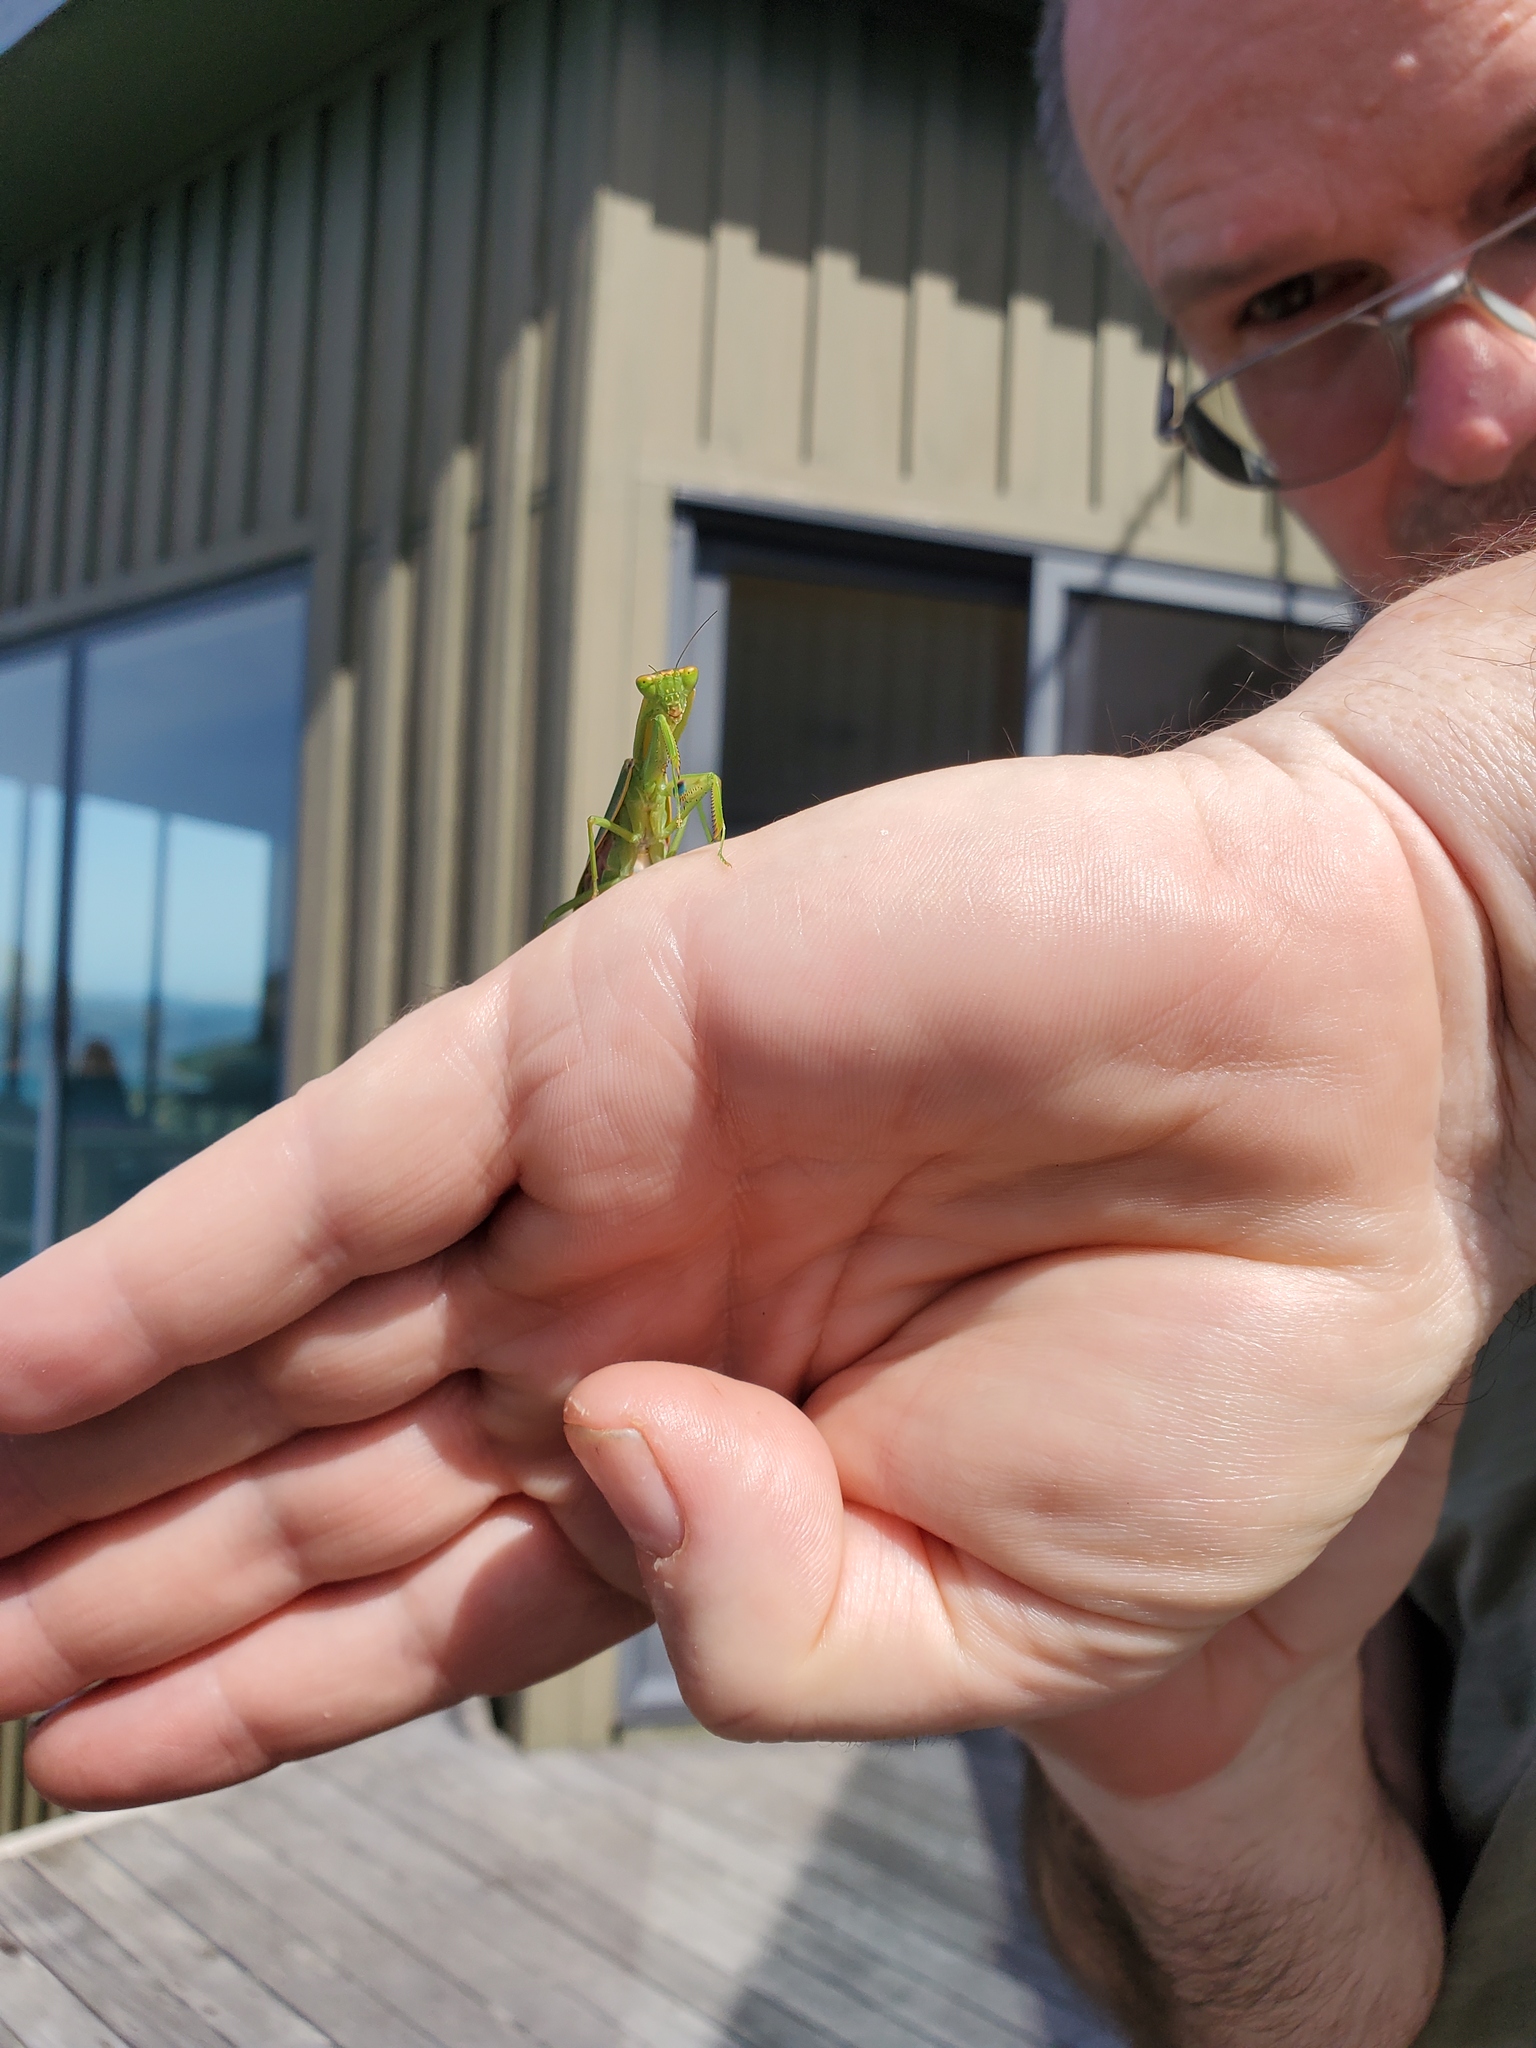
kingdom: Animalia
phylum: Arthropoda
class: Insecta
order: Mantodea
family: Mantidae
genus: Orthodera
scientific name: Orthodera novaezealandiae
